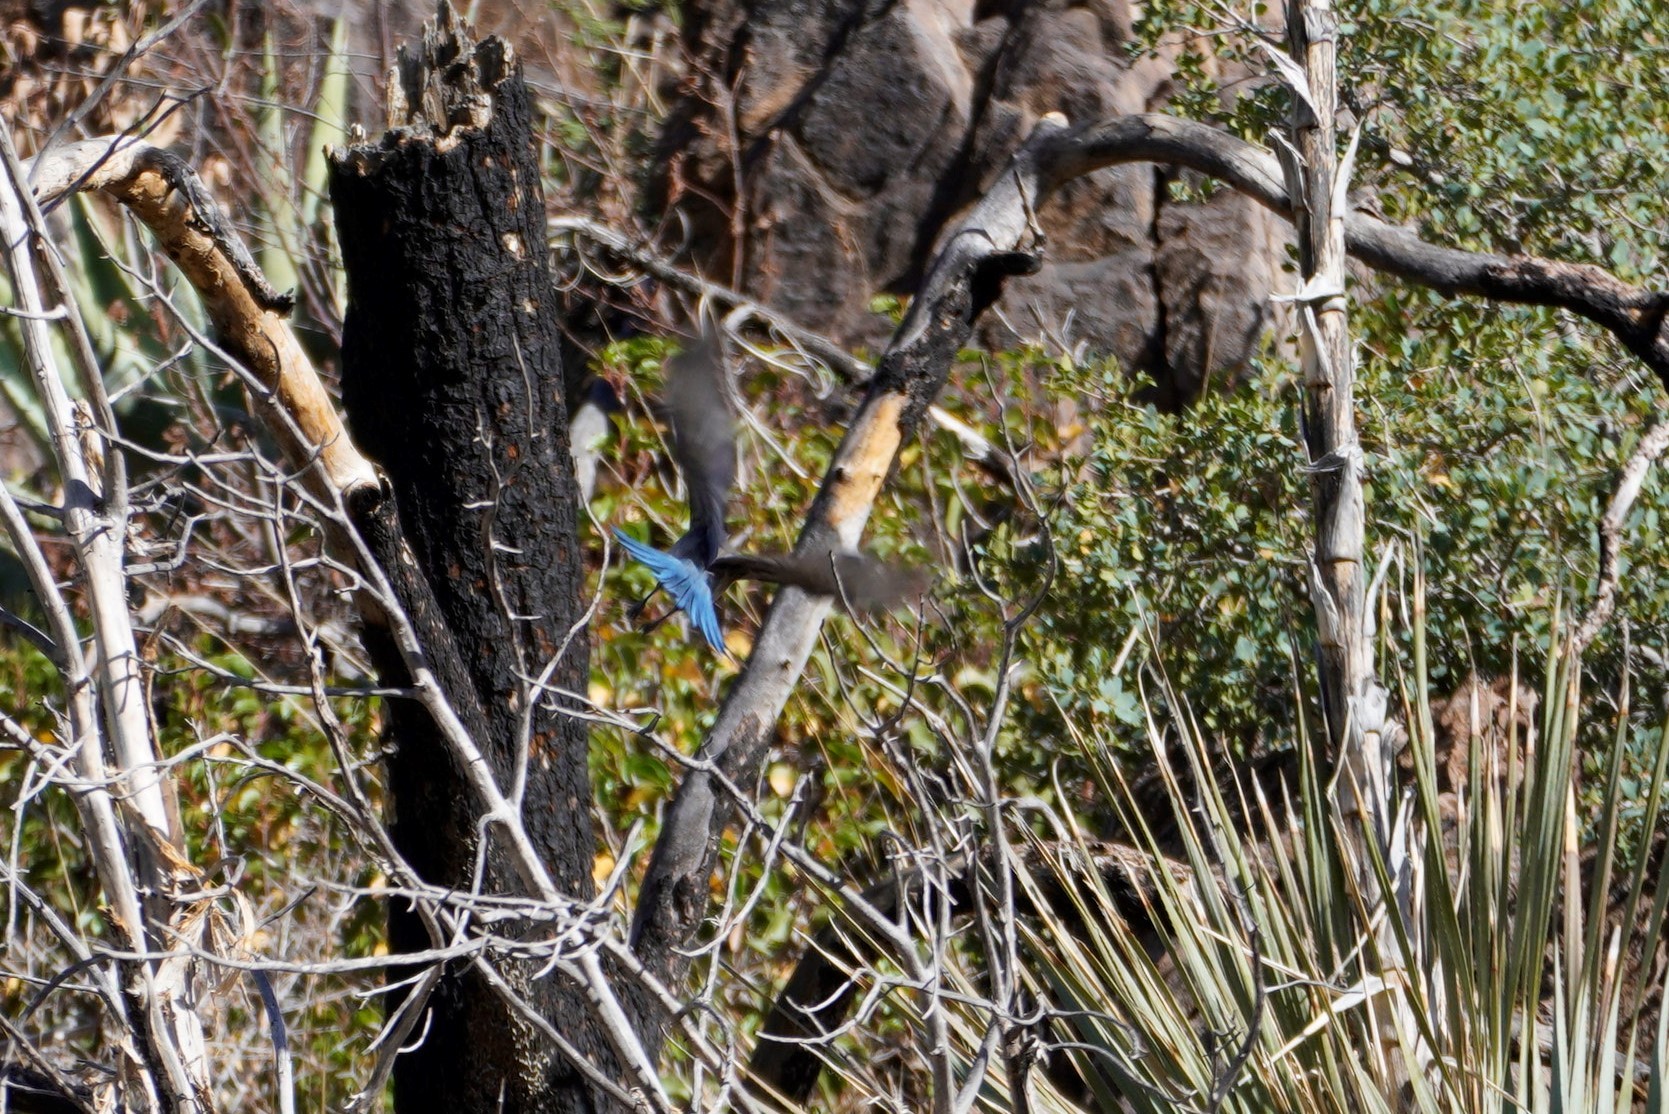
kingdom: Animalia
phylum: Chordata
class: Aves
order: Passeriformes
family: Corvidae
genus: Aphelocoma
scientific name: Aphelocoma woodhouseii
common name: Woodhouse's scrub-jay
